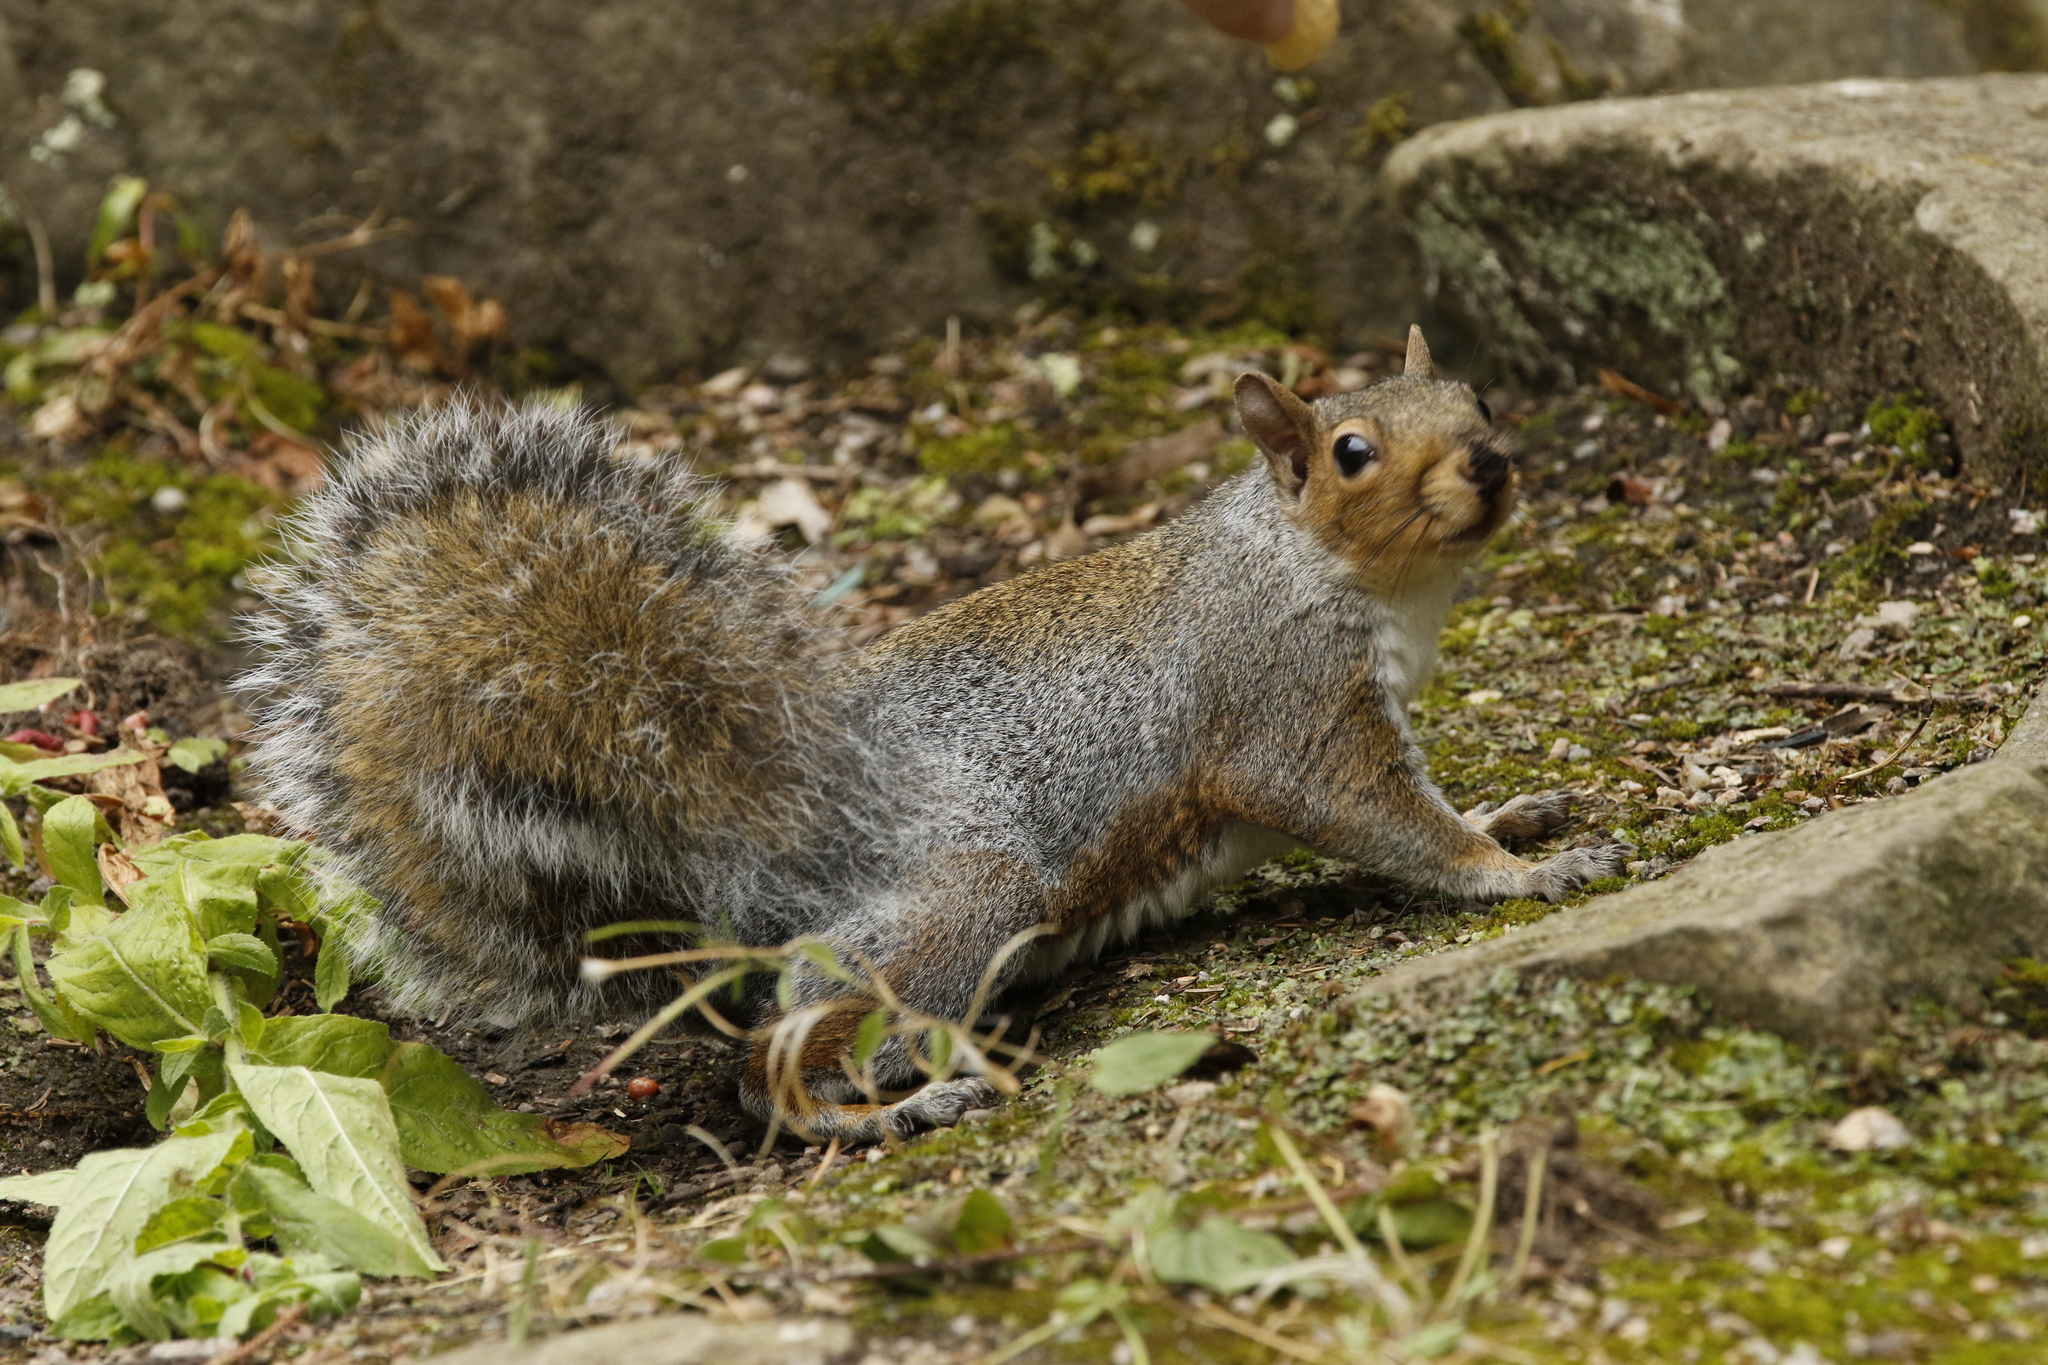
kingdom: Animalia
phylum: Chordata
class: Mammalia
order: Rodentia
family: Sciuridae
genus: Sciurus
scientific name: Sciurus carolinensis
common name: Eastern gray squirrel
